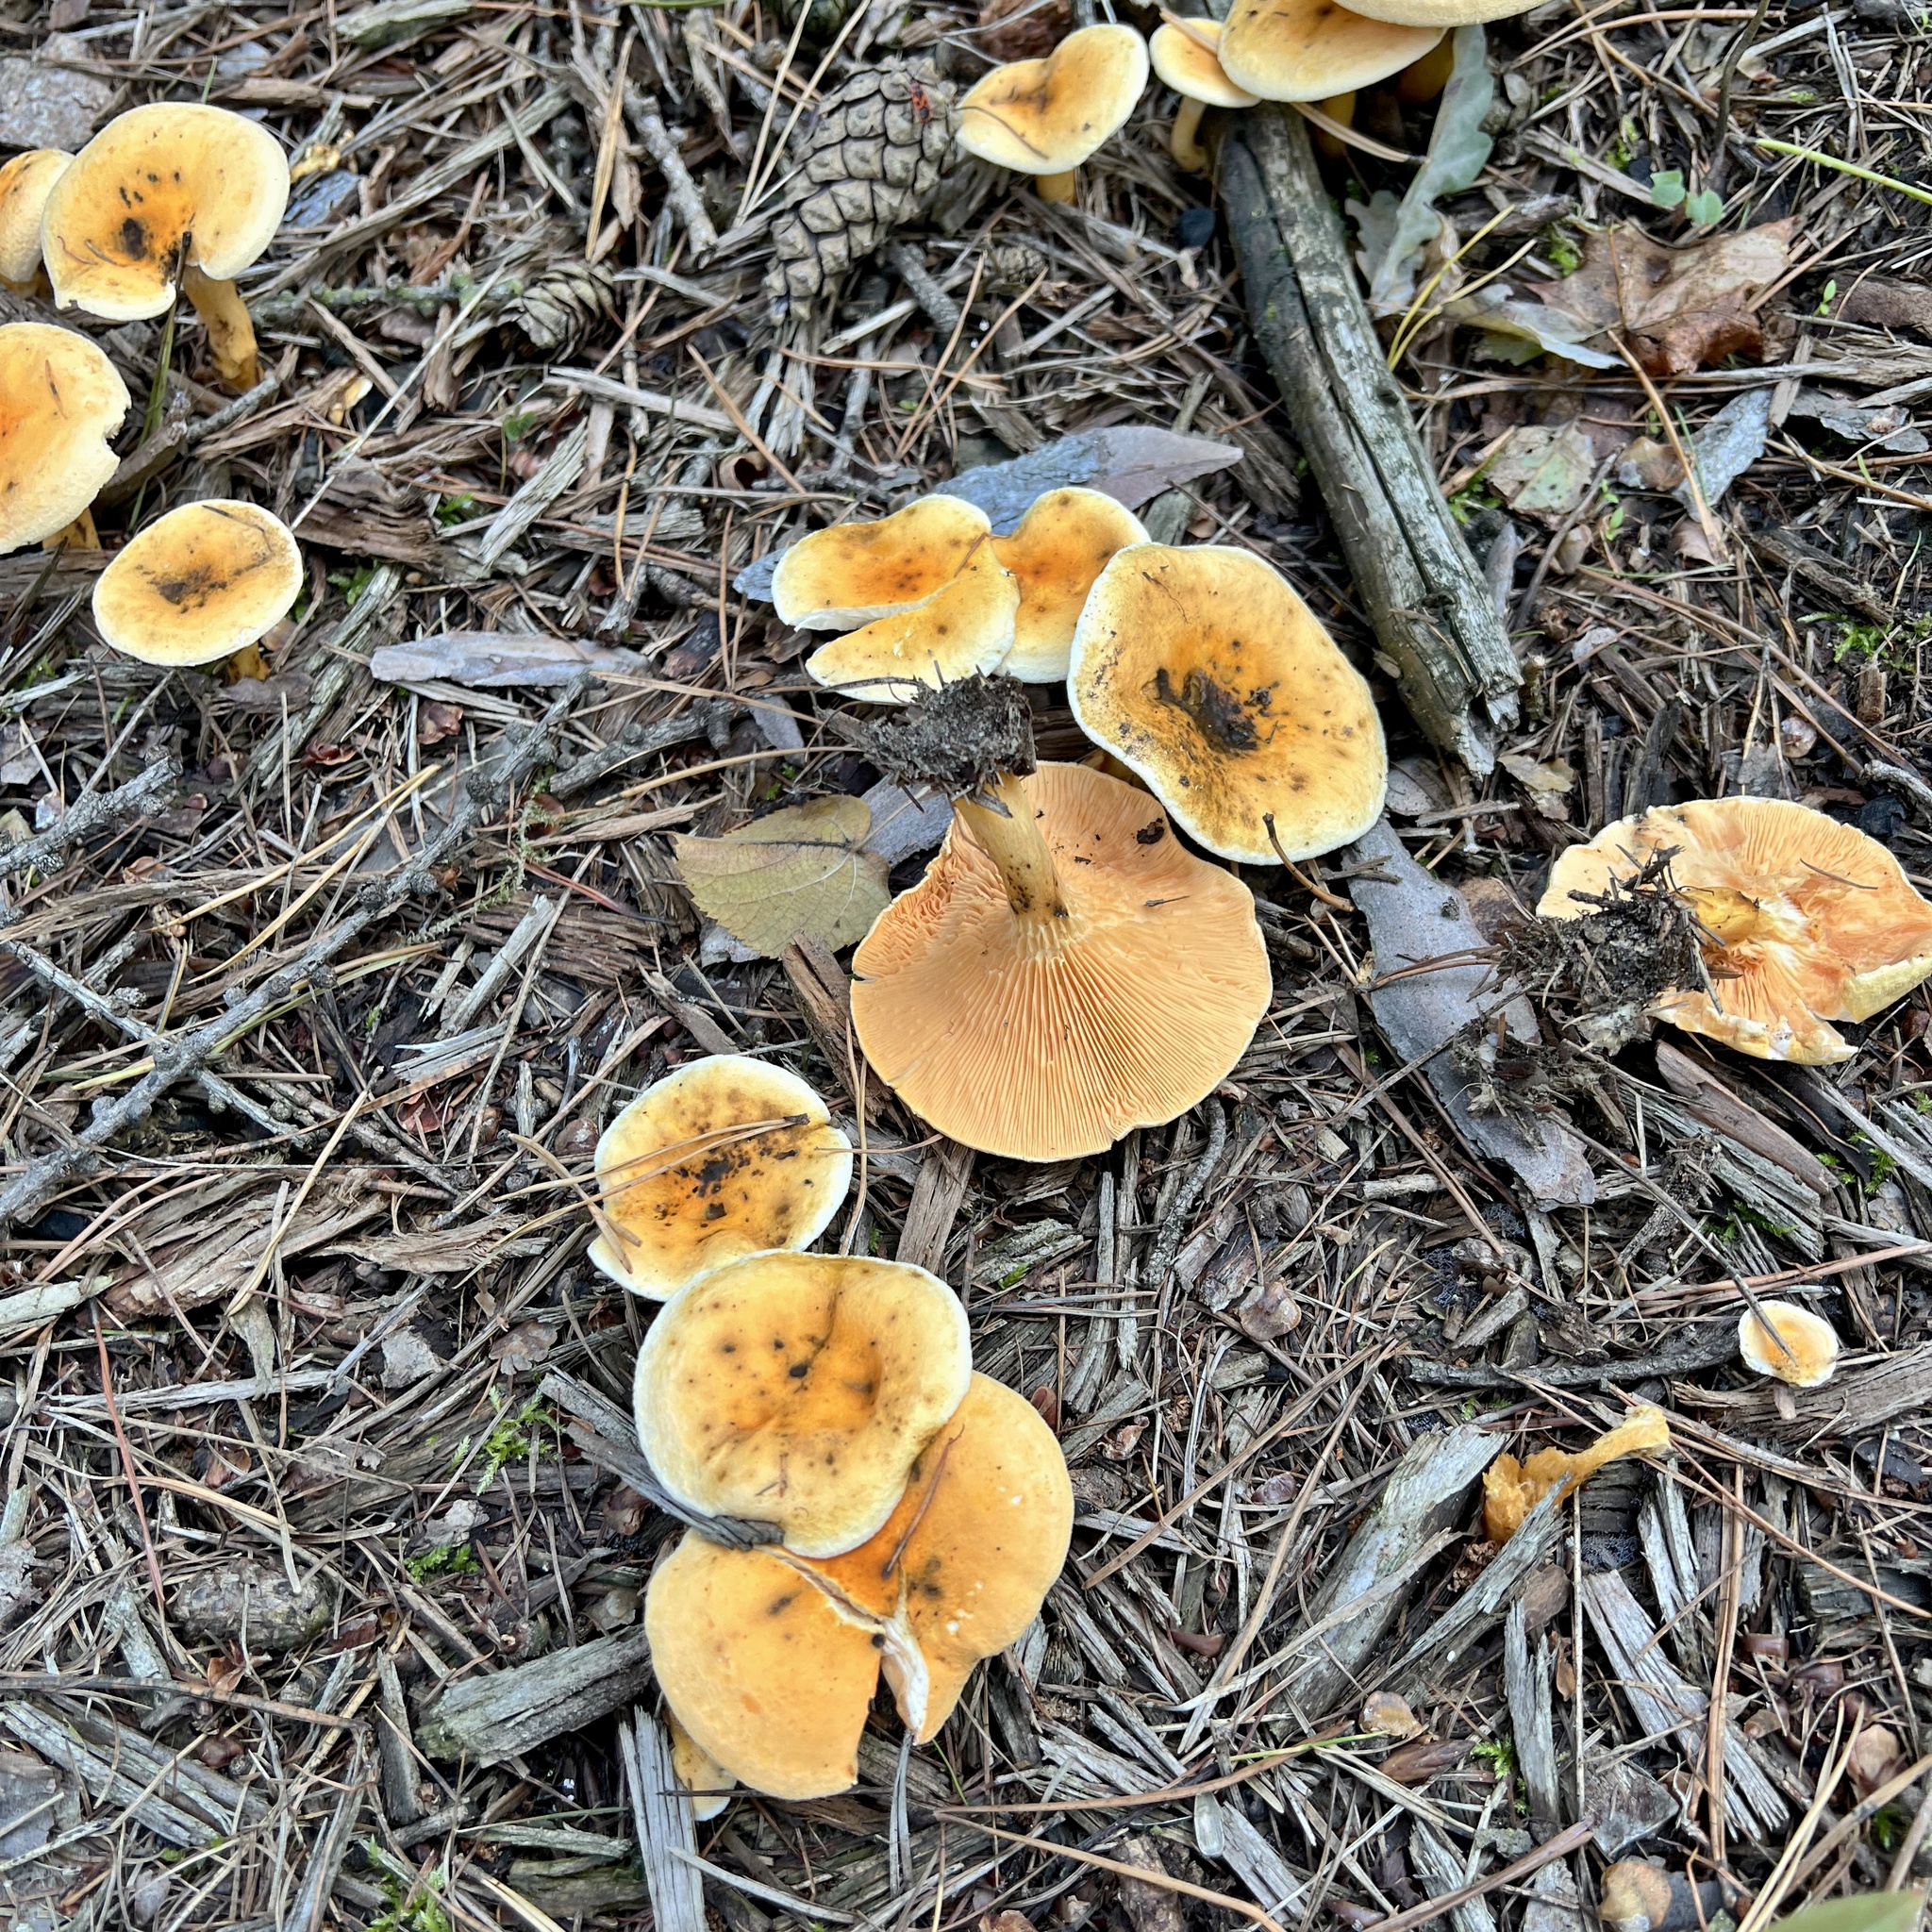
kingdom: Fungi
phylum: Basidiomycota
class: Agaricomycetes
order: Boletales
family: Hygrophoropsidaceae
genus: Hygrophoropsis
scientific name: Hygrophoropsis aurantiaca
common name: False chanterelle
